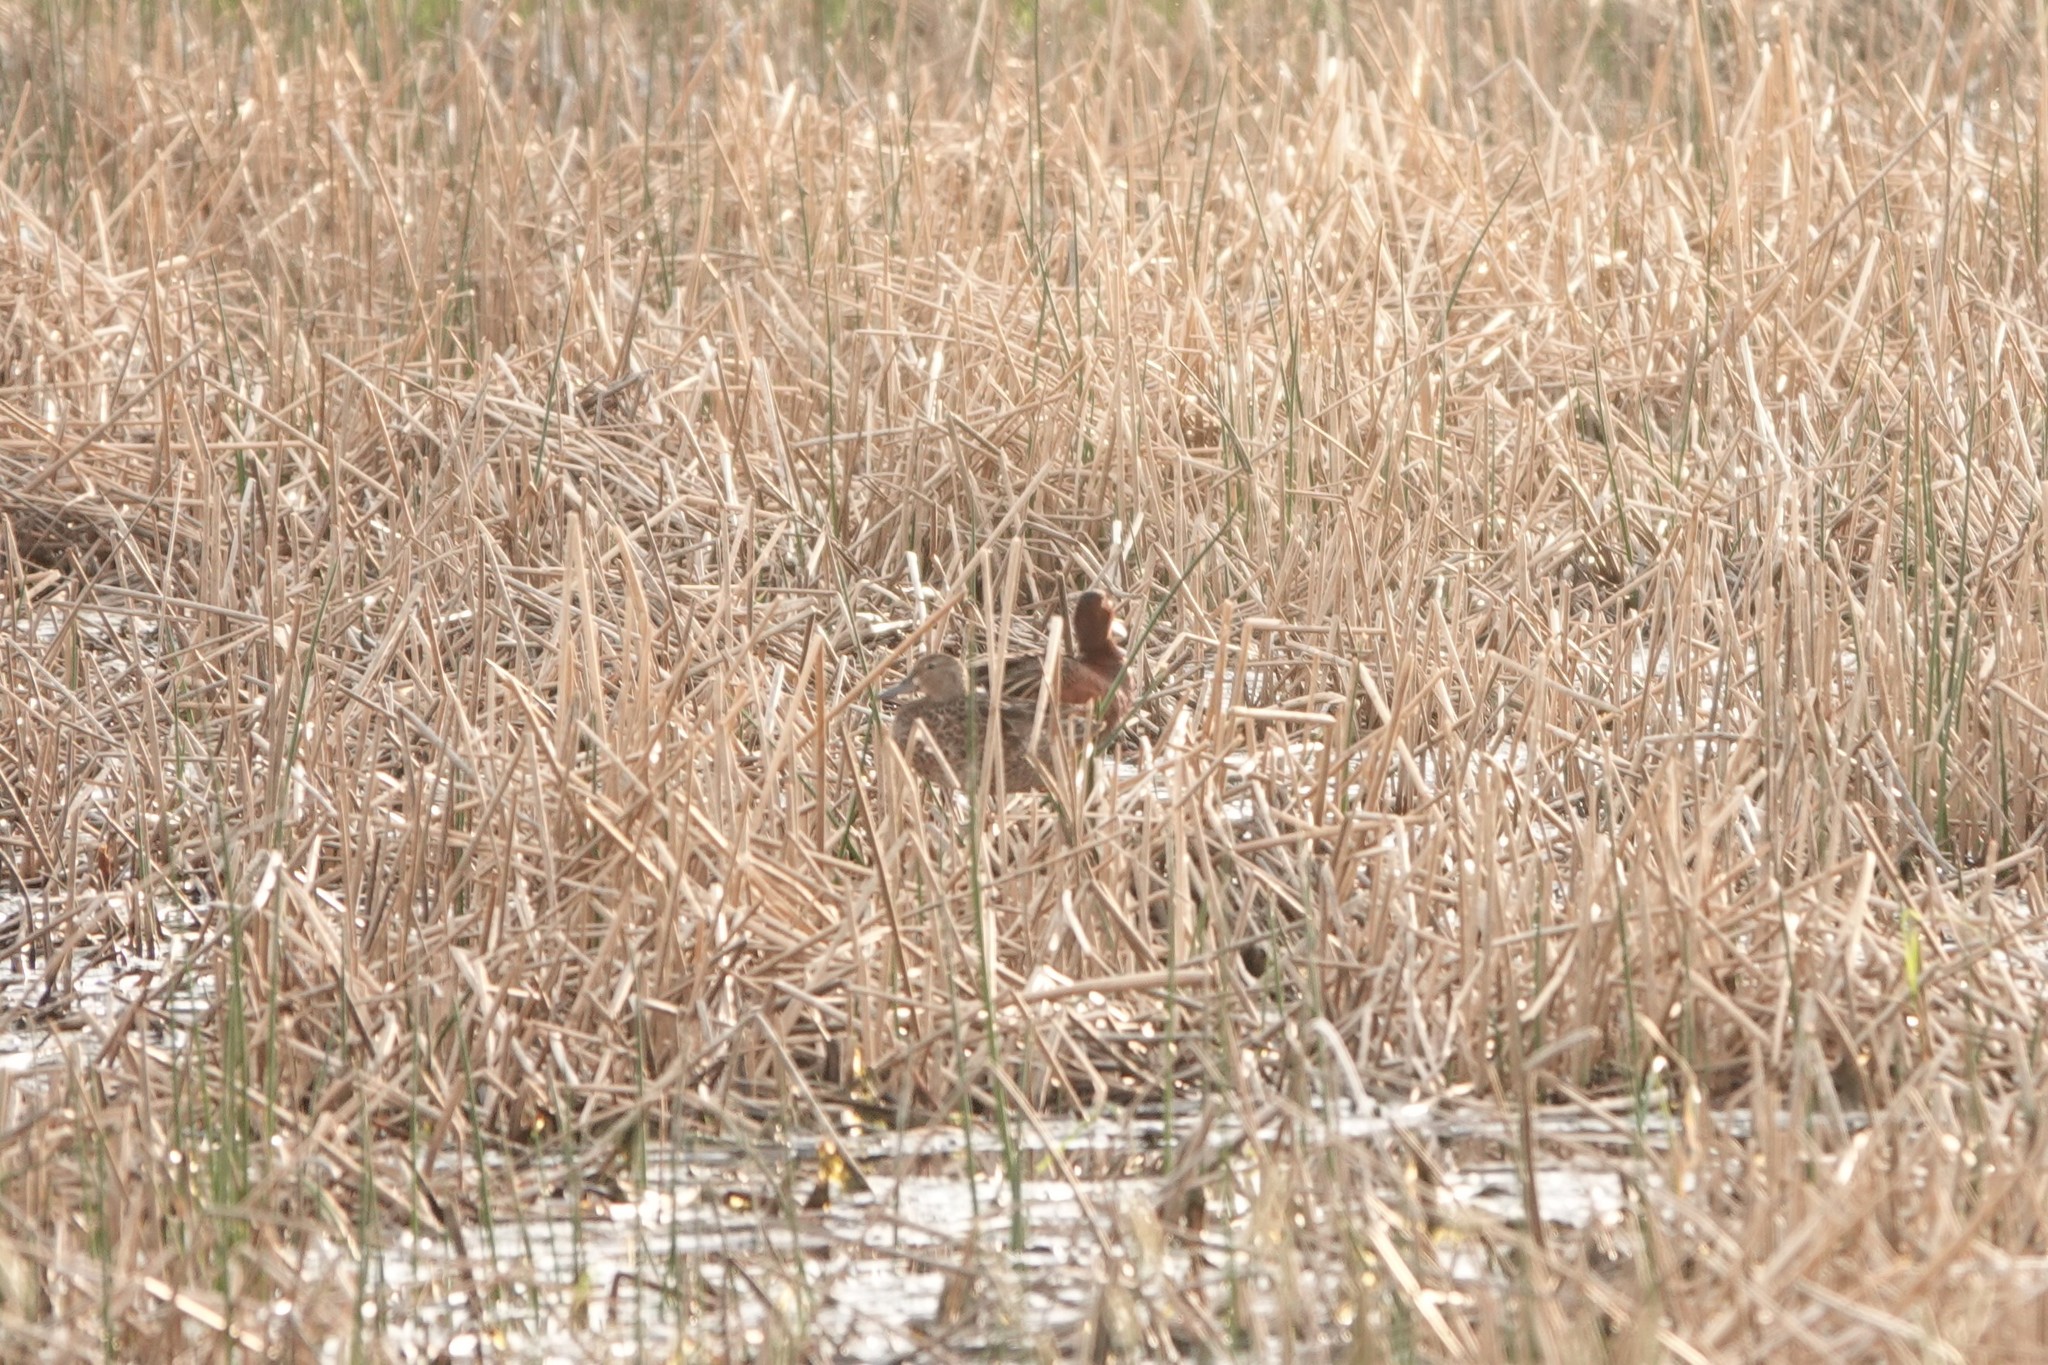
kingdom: Animalia
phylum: Chordata
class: Aves
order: Anseriformes
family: Anatidae
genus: Spatula
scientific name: Spatula cyanoptera
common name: Cinnamon teal
